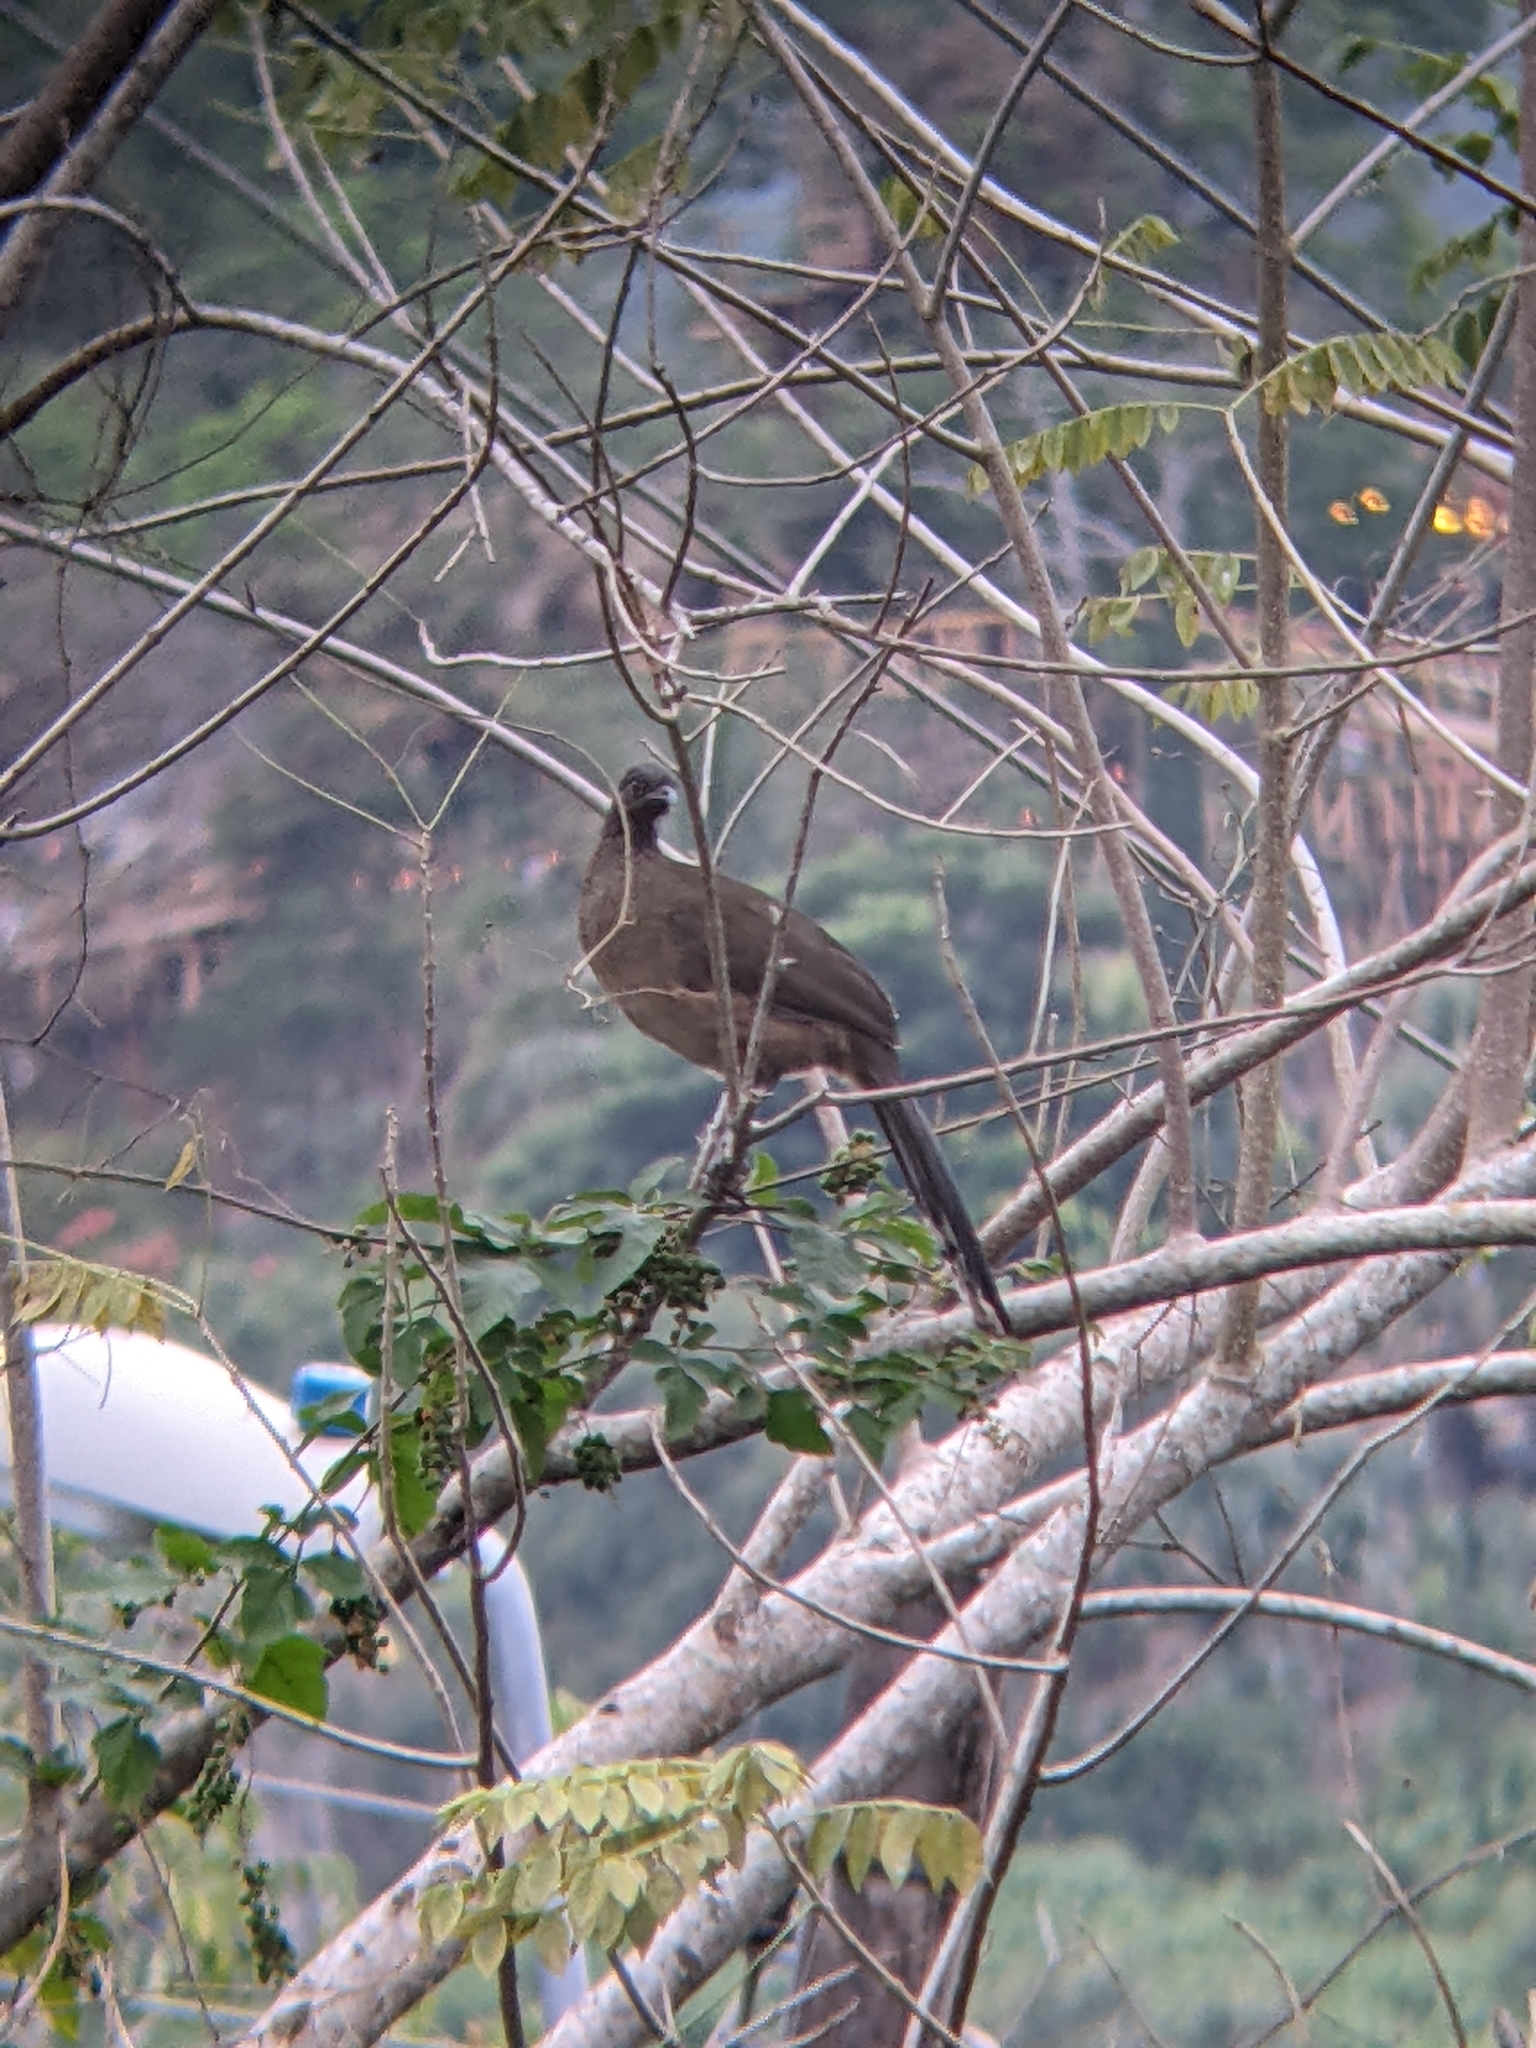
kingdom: Animalia
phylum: Chordata
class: Aves
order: Galliformes
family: Cracidae
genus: Ortalis
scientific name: Ortalis vetula
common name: Plain chachalaca
